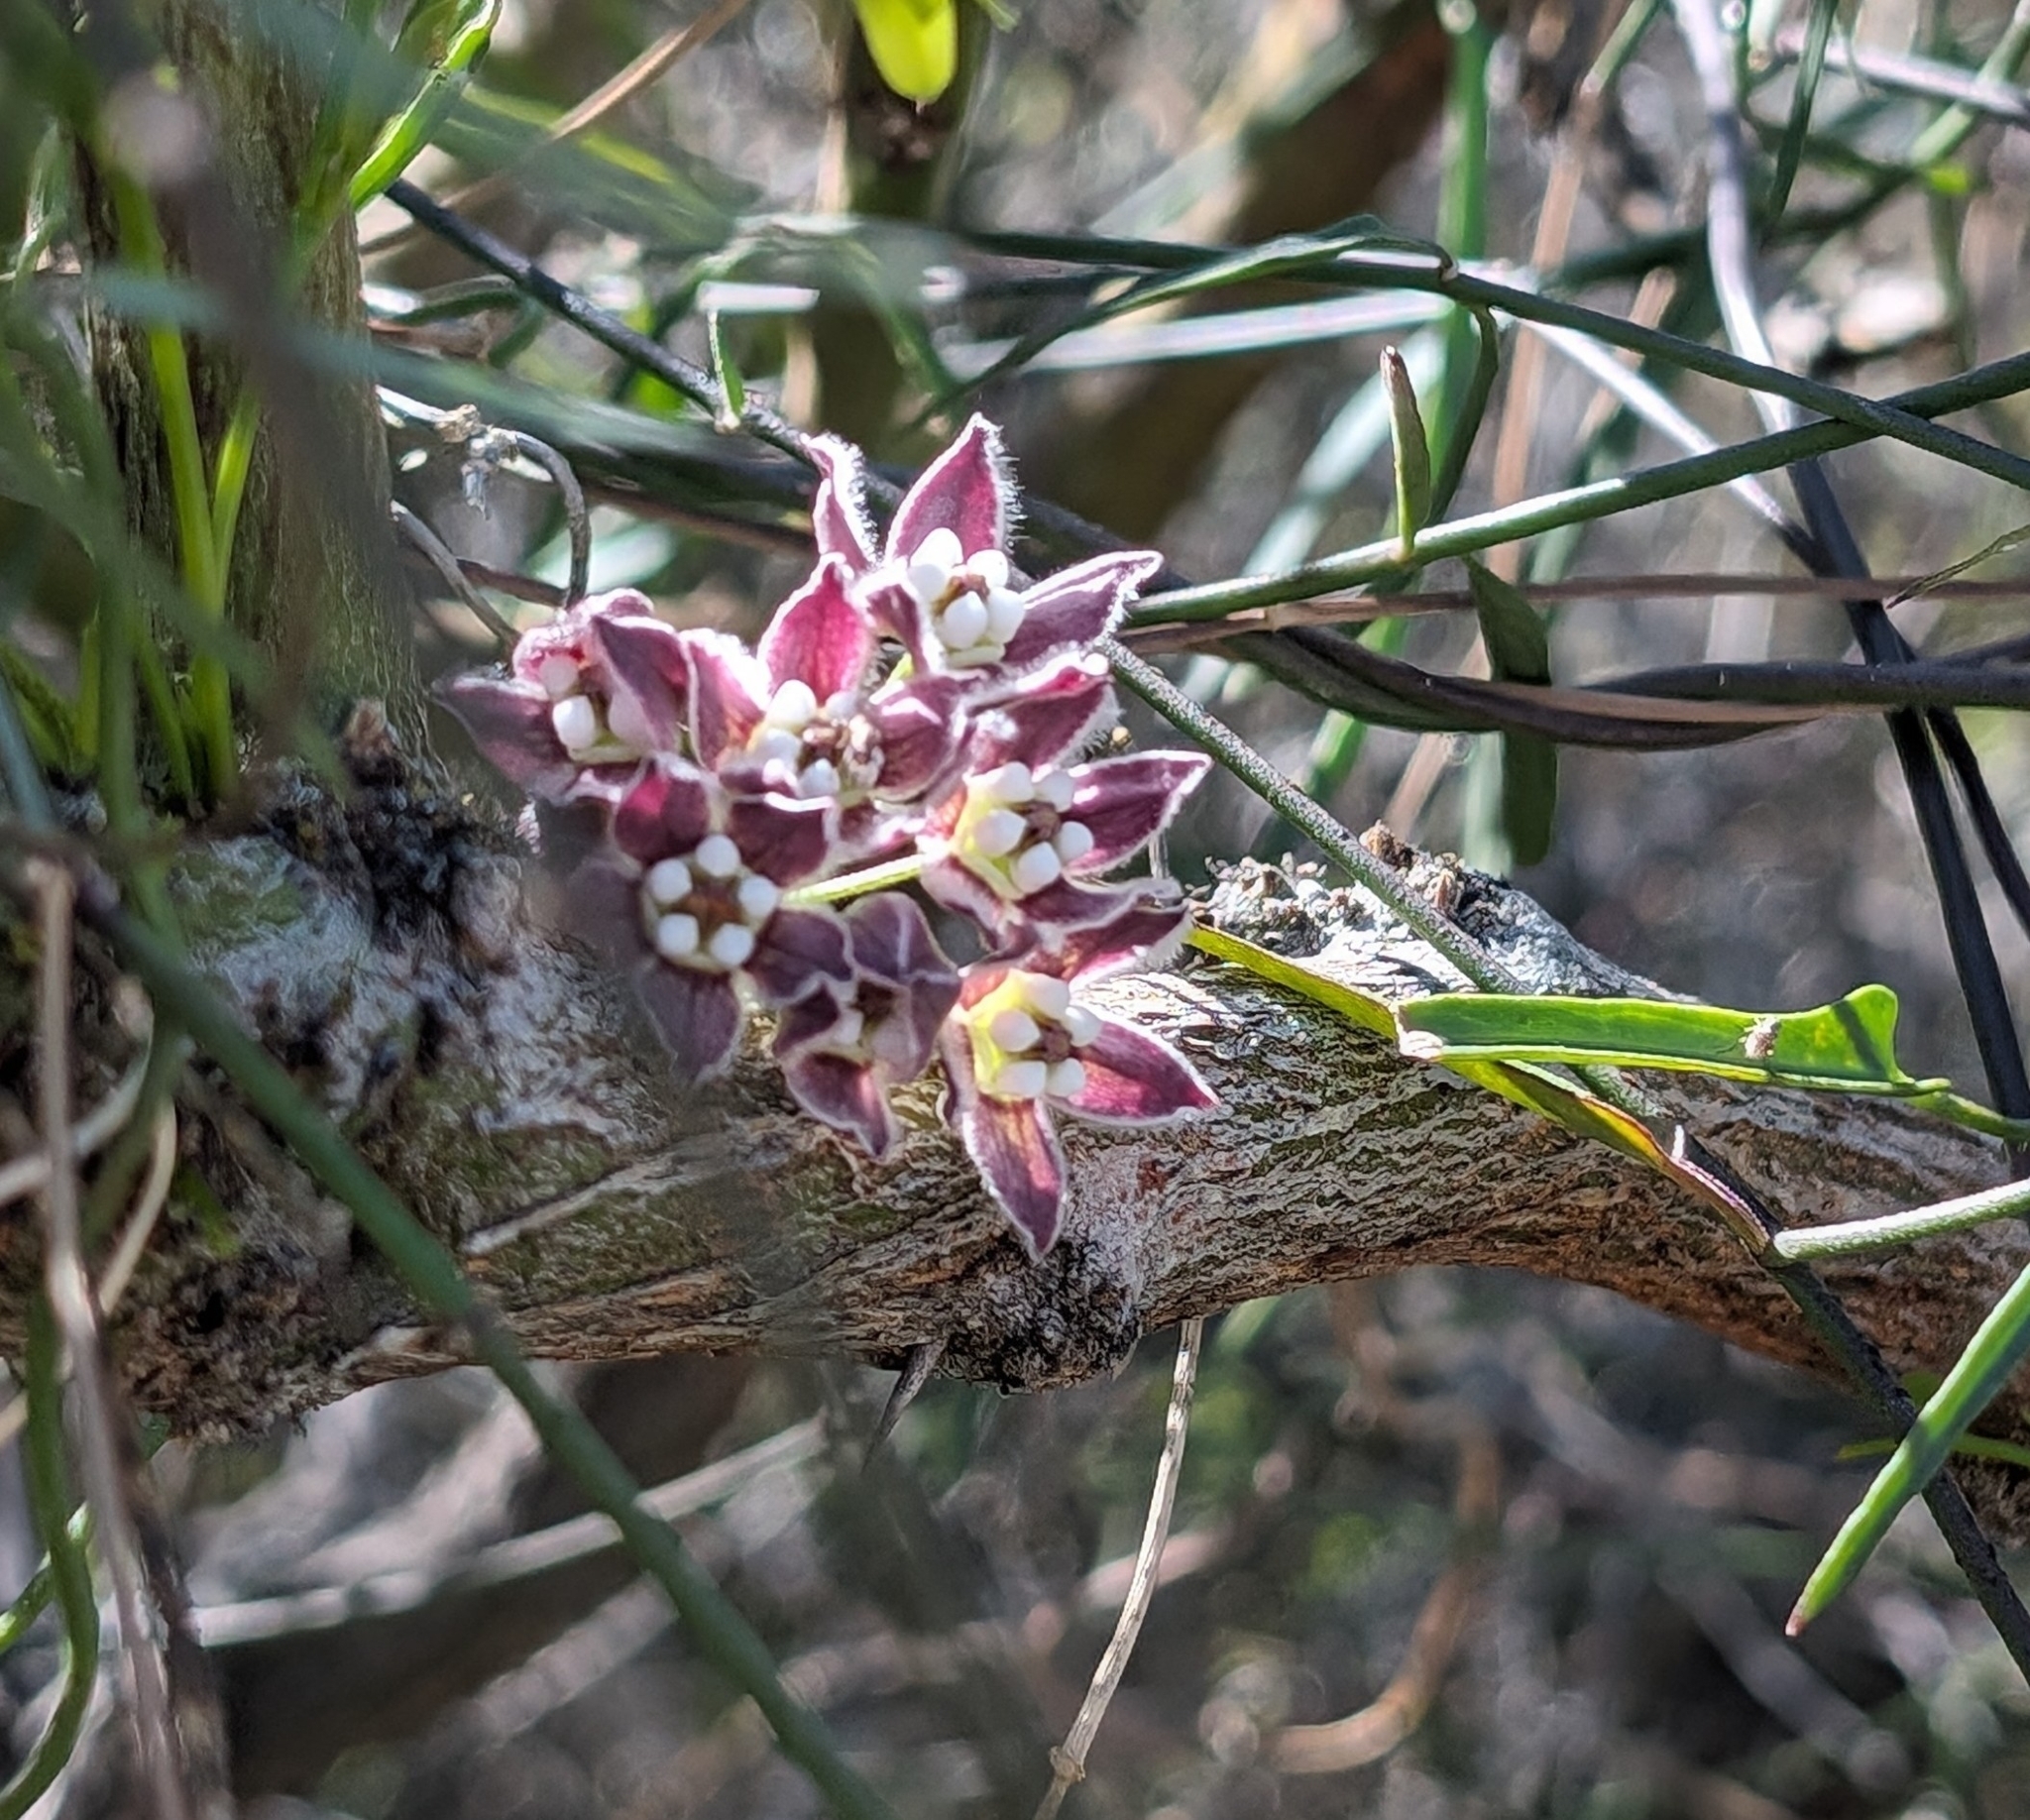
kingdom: Plantae
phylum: Tracheophyta
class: Magnoliopsida
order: Gentianales
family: Apocynaceae
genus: Funastrum
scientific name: Funastrum heterophyllum
